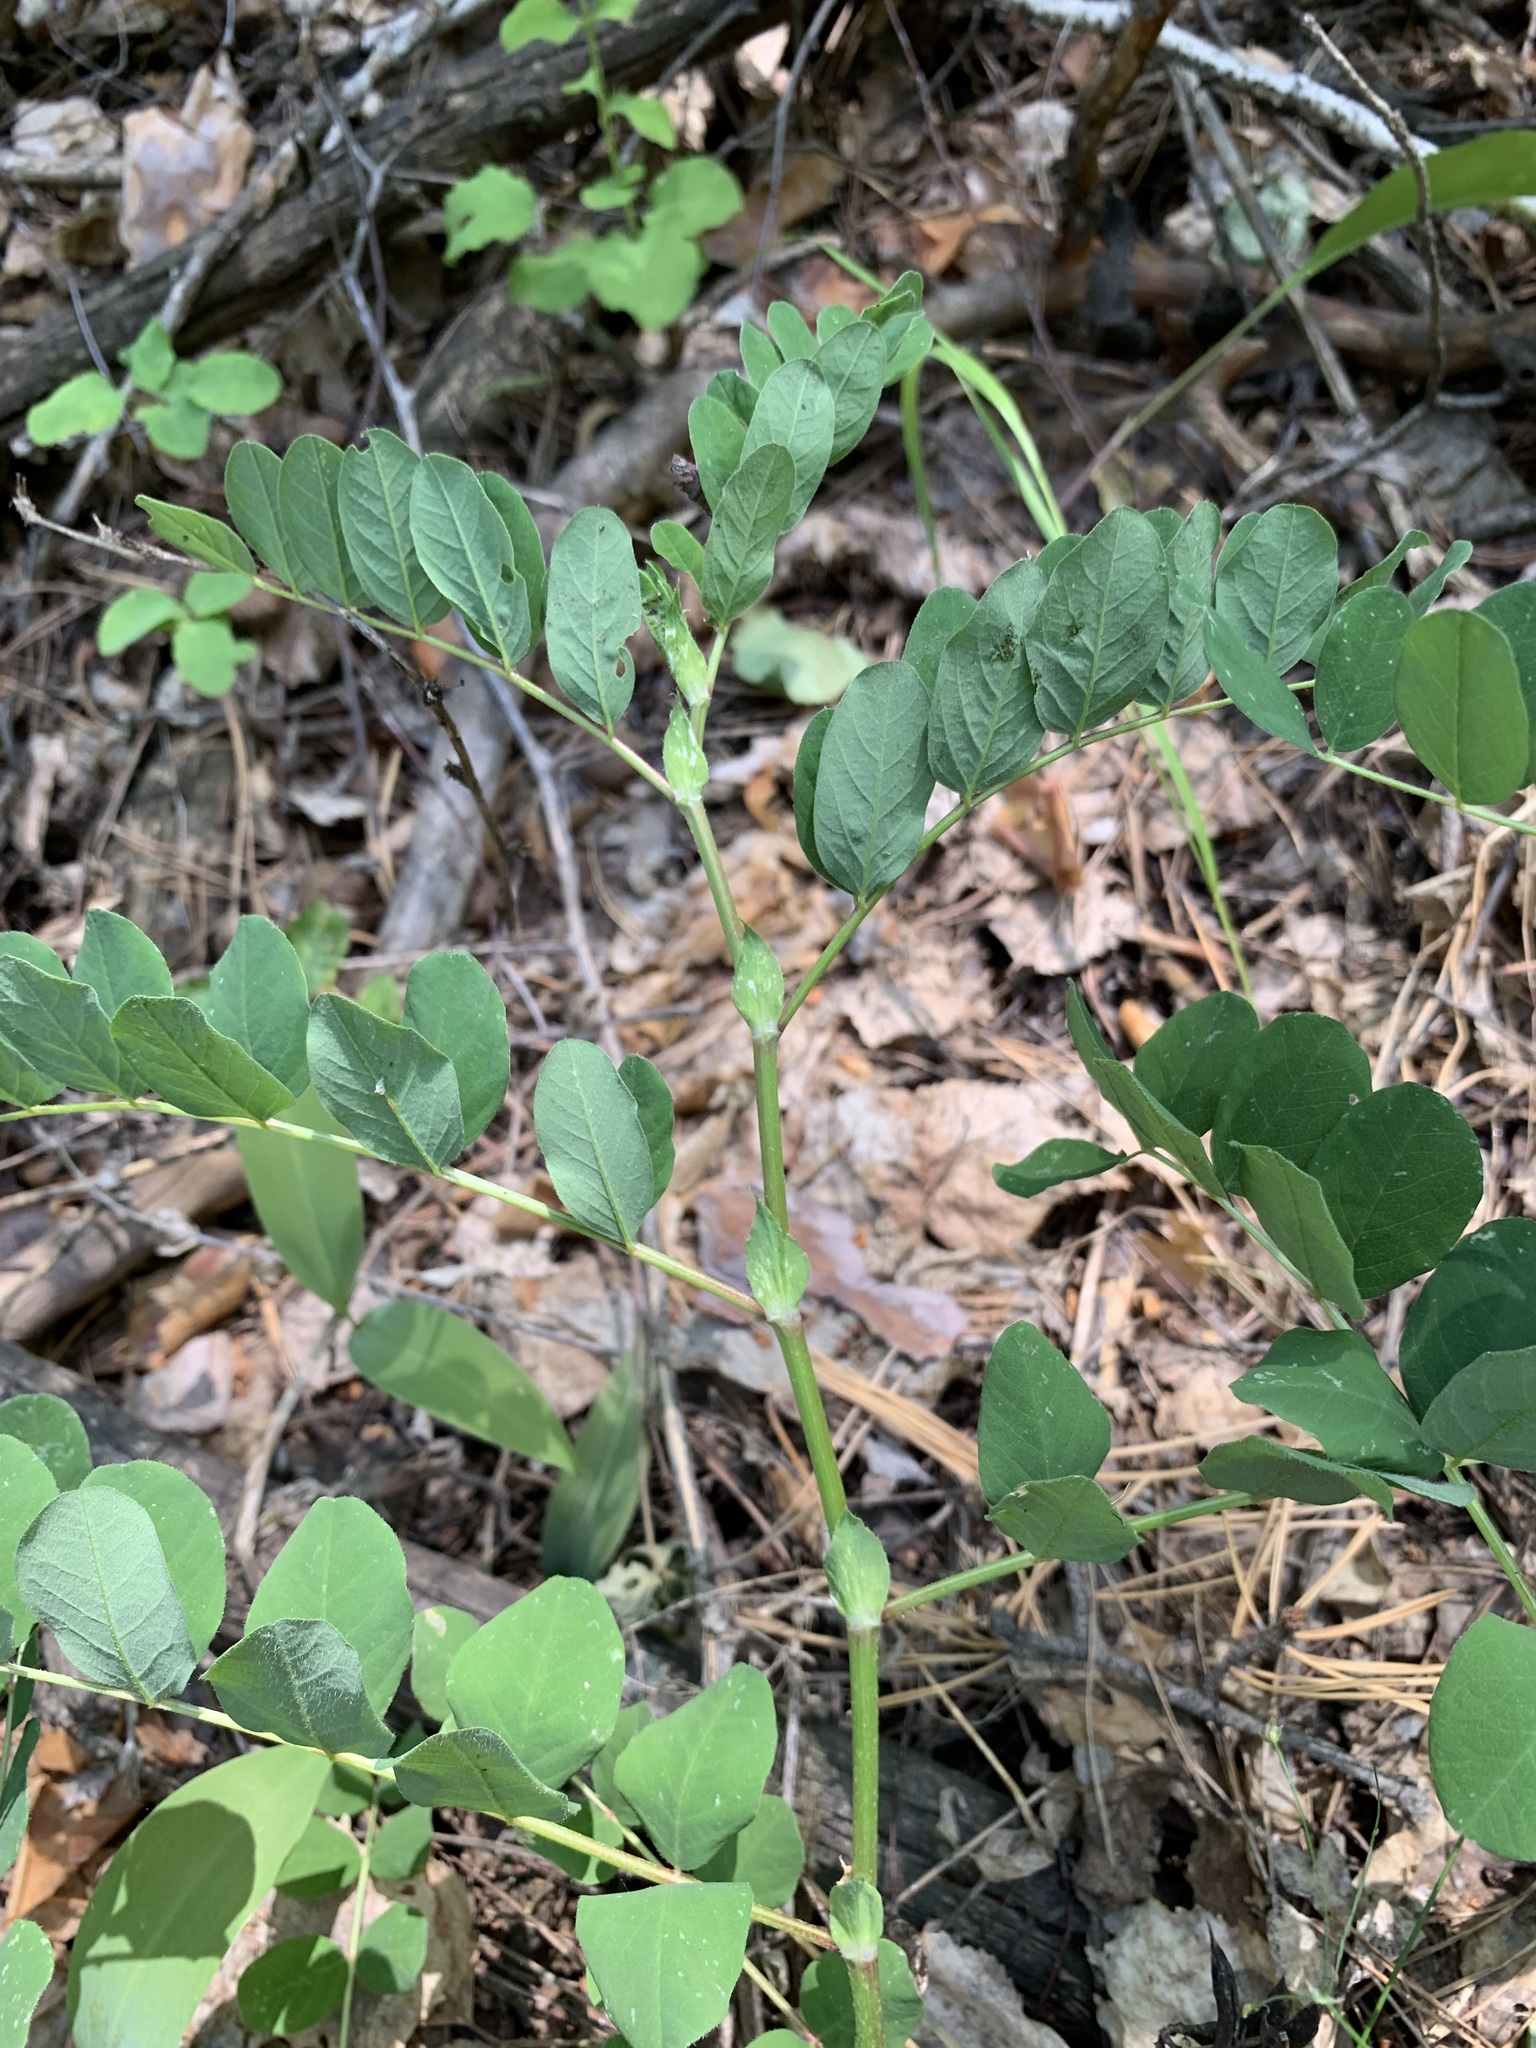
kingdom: Plantae
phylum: Tracheophyta
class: Magnoliopsida
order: Fabales
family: Fabaceae
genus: Astragalus
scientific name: Astragalus glycyphyllos
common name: Wild liquorice
